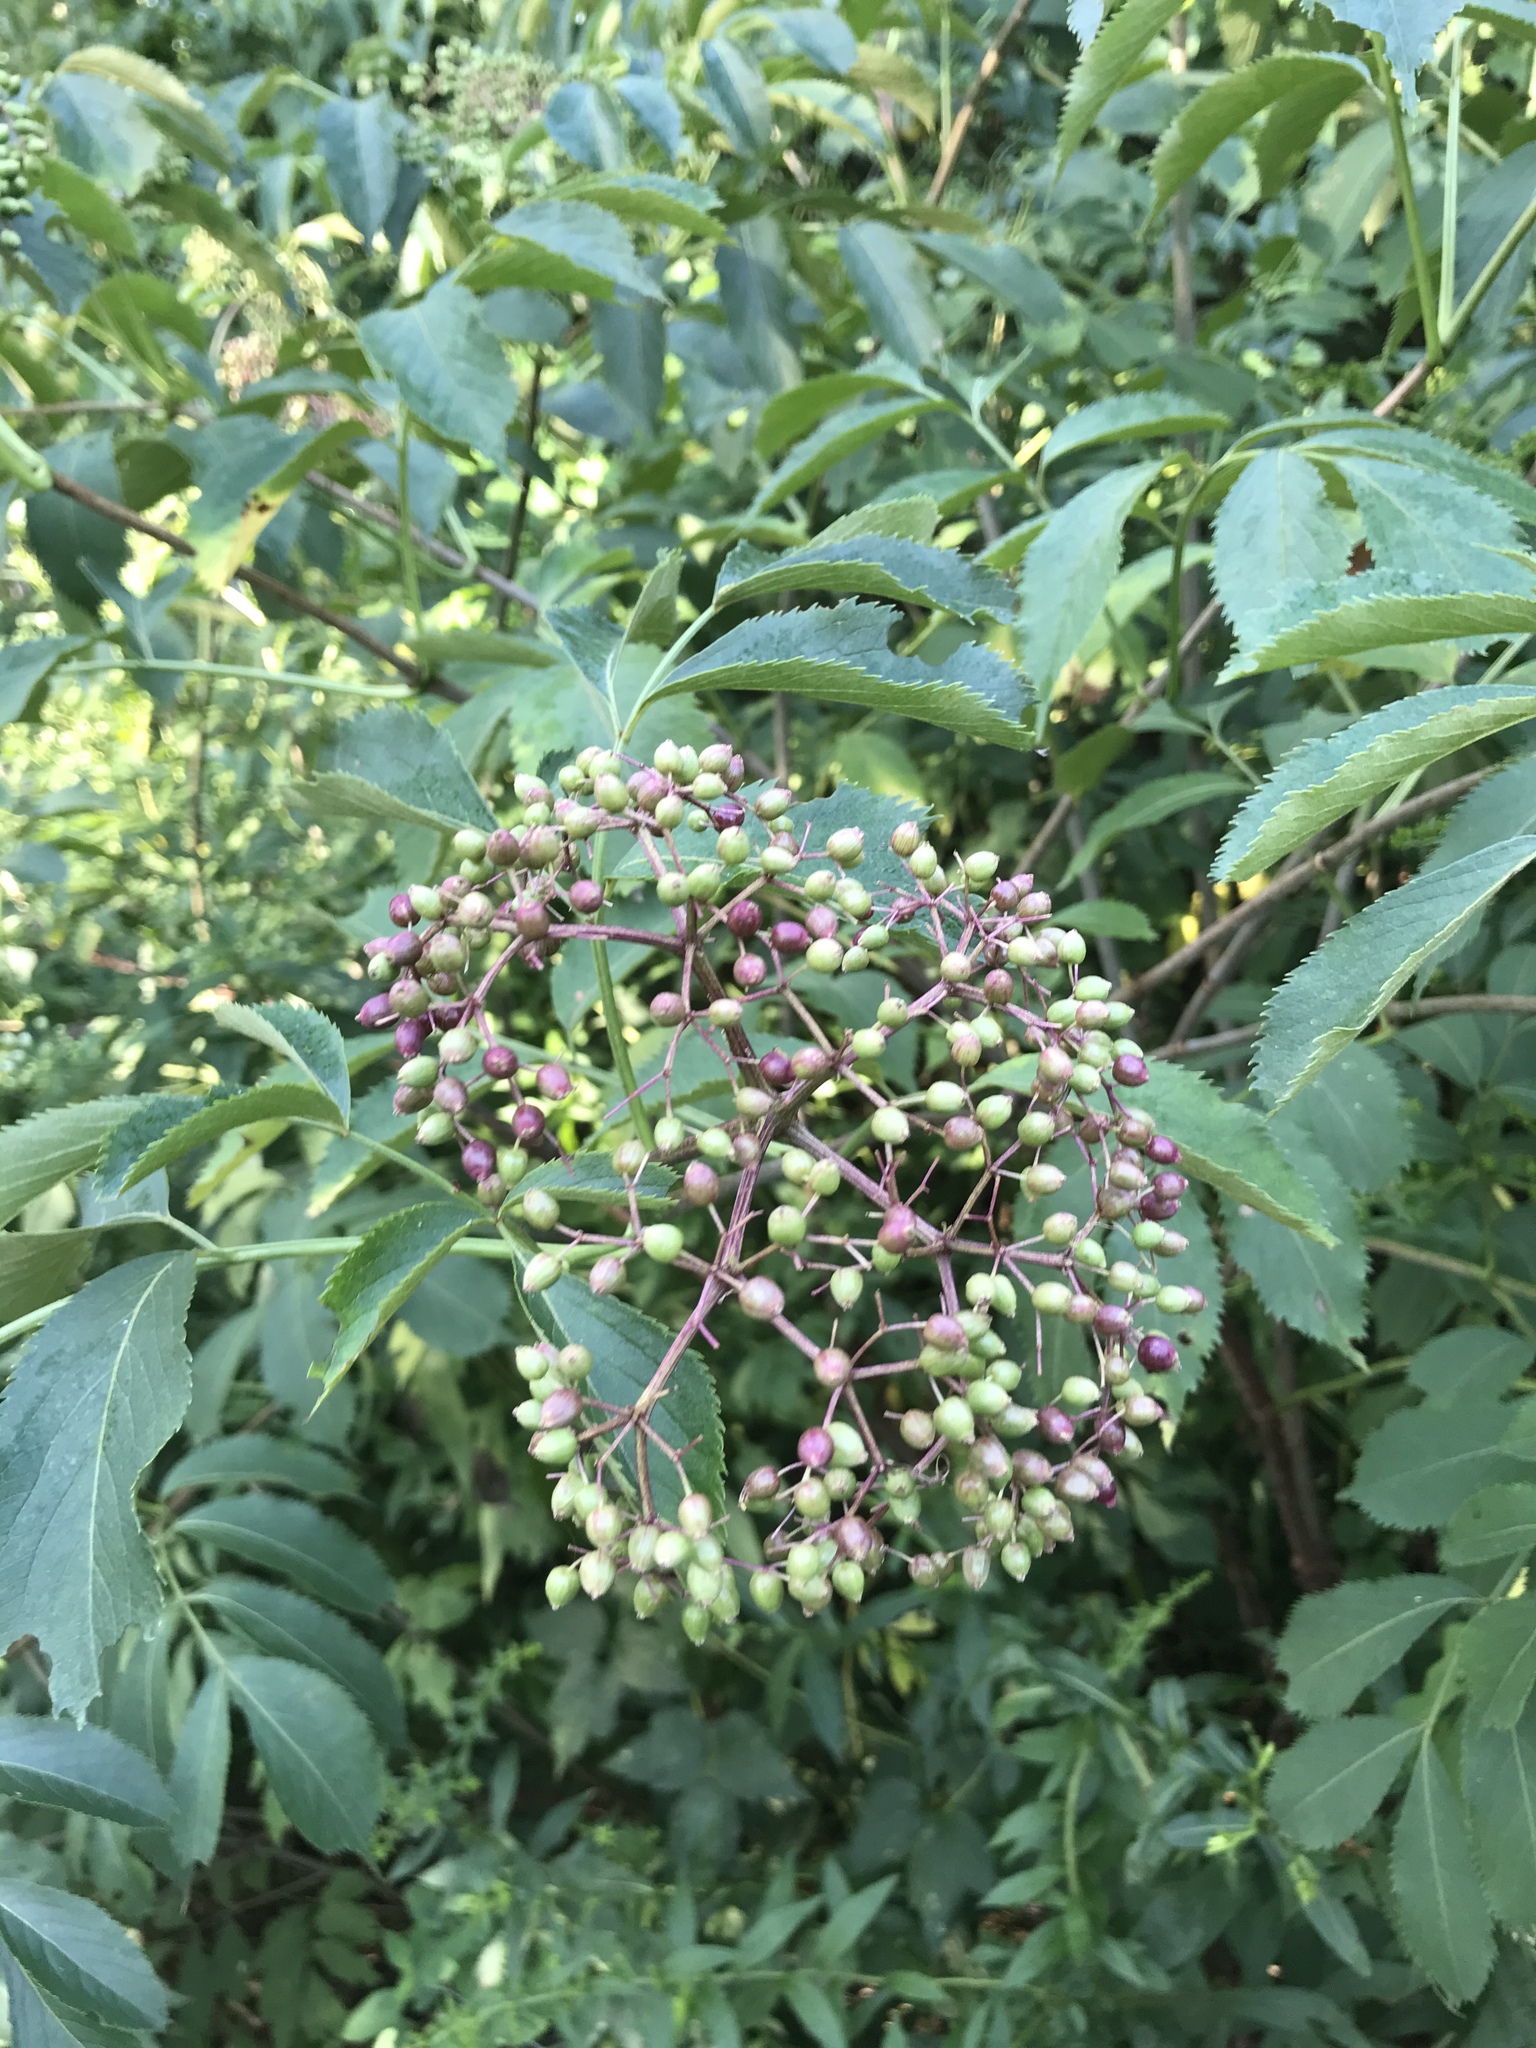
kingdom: Plantae
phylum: Tracheophyta
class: Magnoliopsida
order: Dipsacales
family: Viburnaceae
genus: Sambucus
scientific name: Sambucus canadensis
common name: American elder
